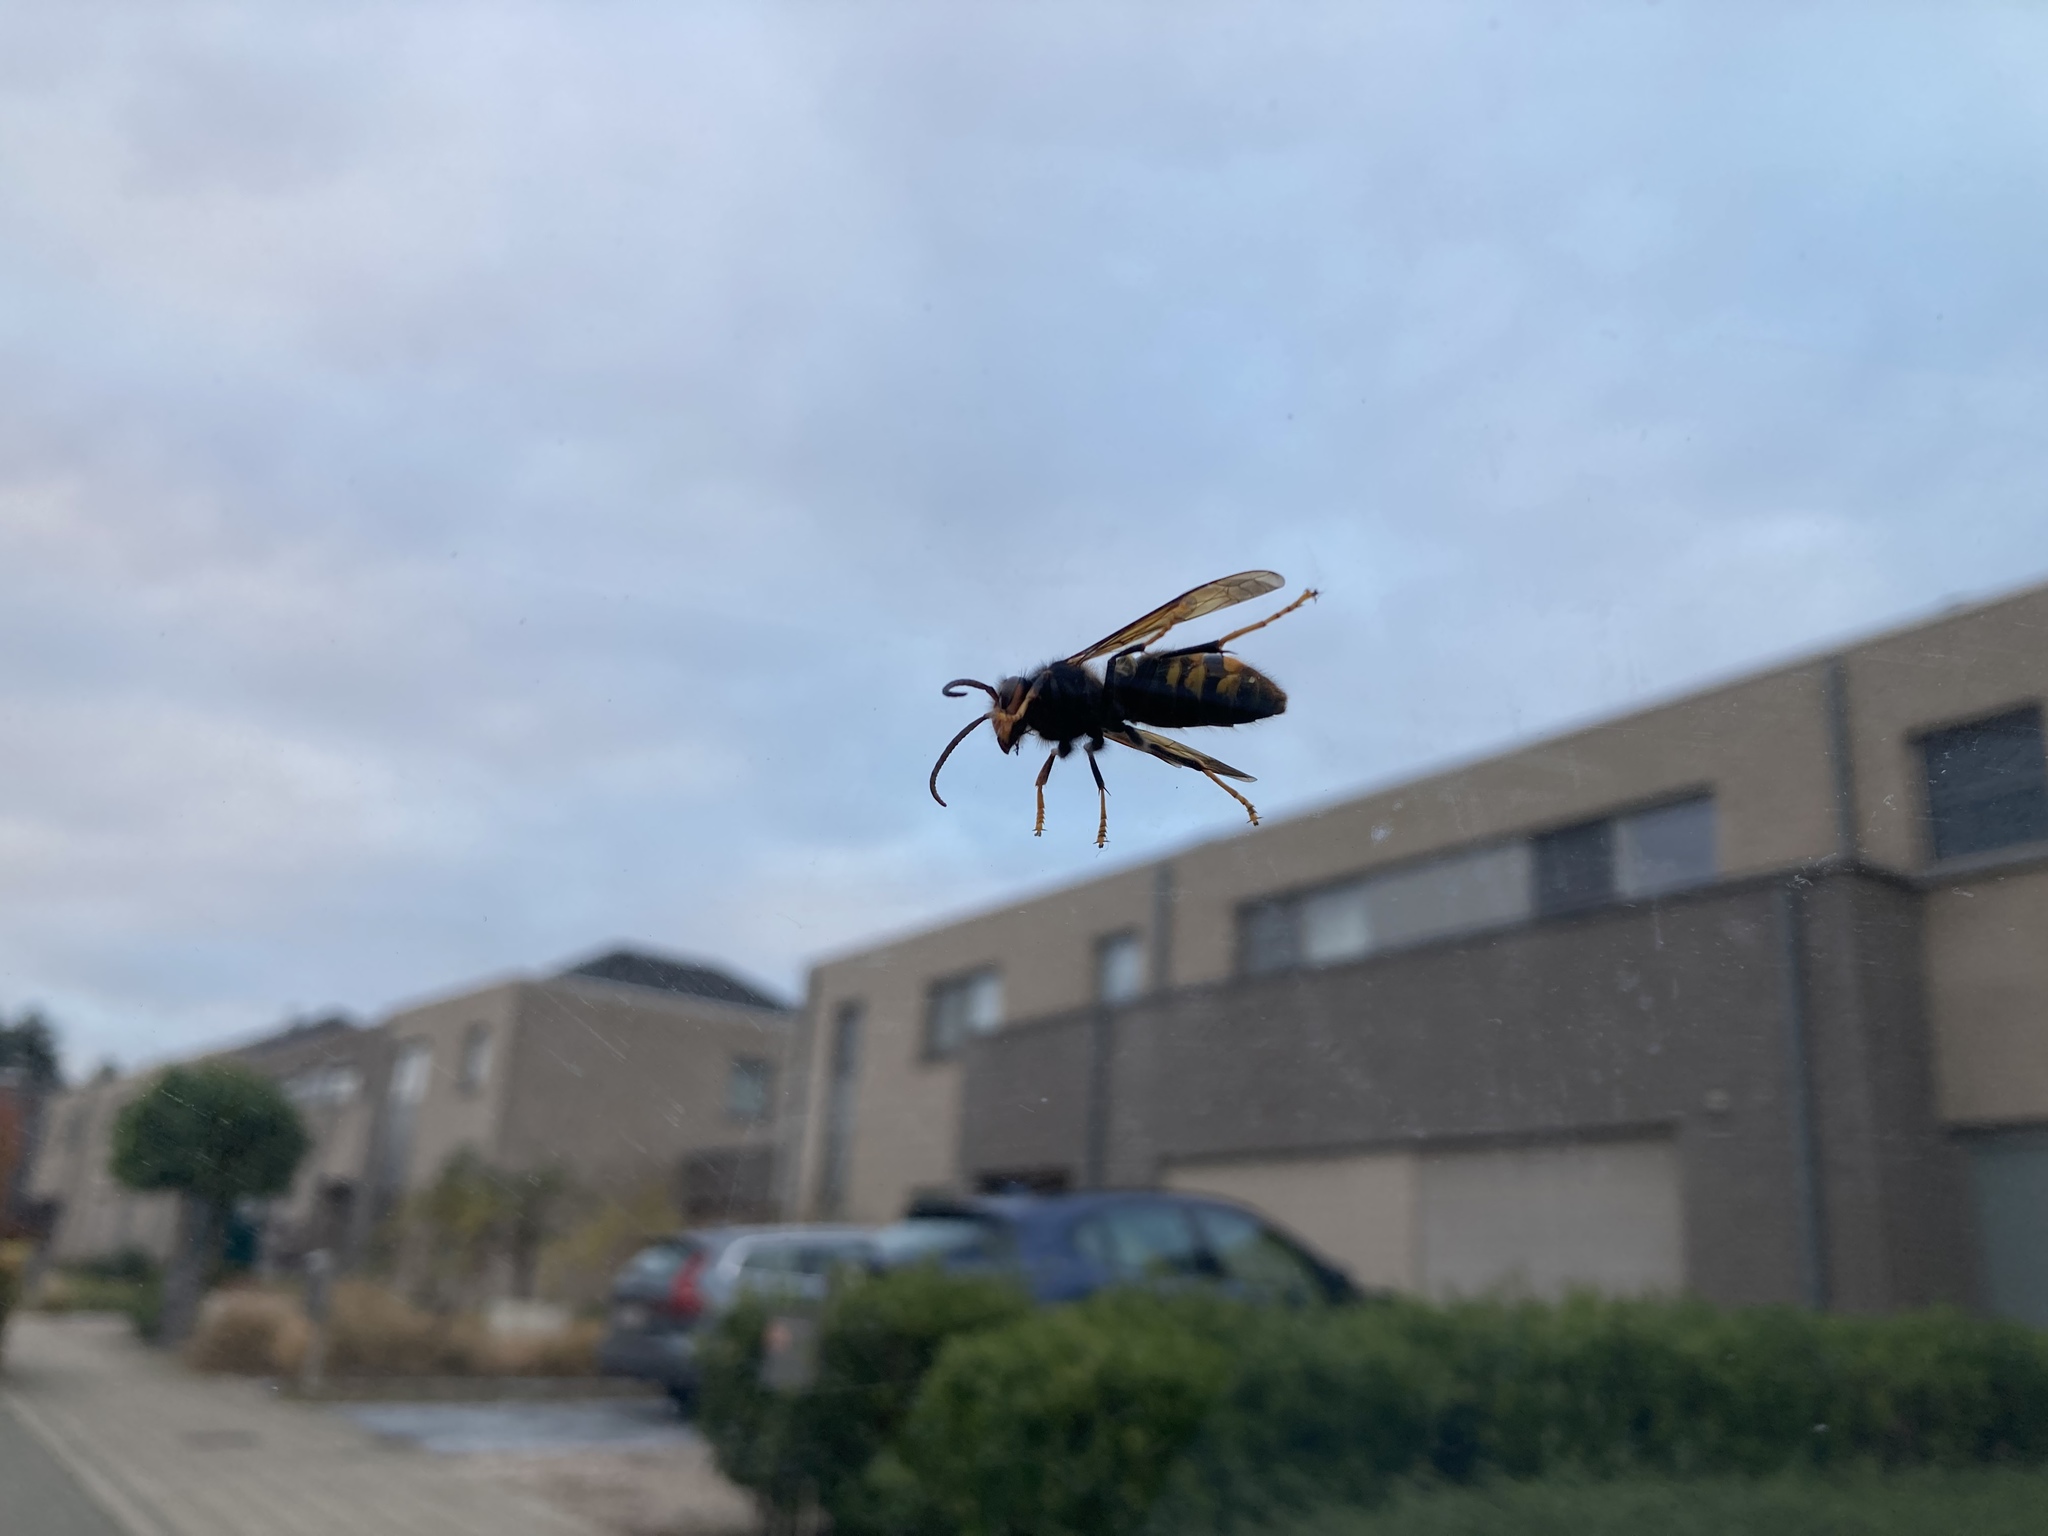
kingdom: Animalia
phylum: Arthropoda
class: Insecta
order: Hymenoptera
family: Vespidae
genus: Vespa
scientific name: Vespa velutina
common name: Asian hornet
